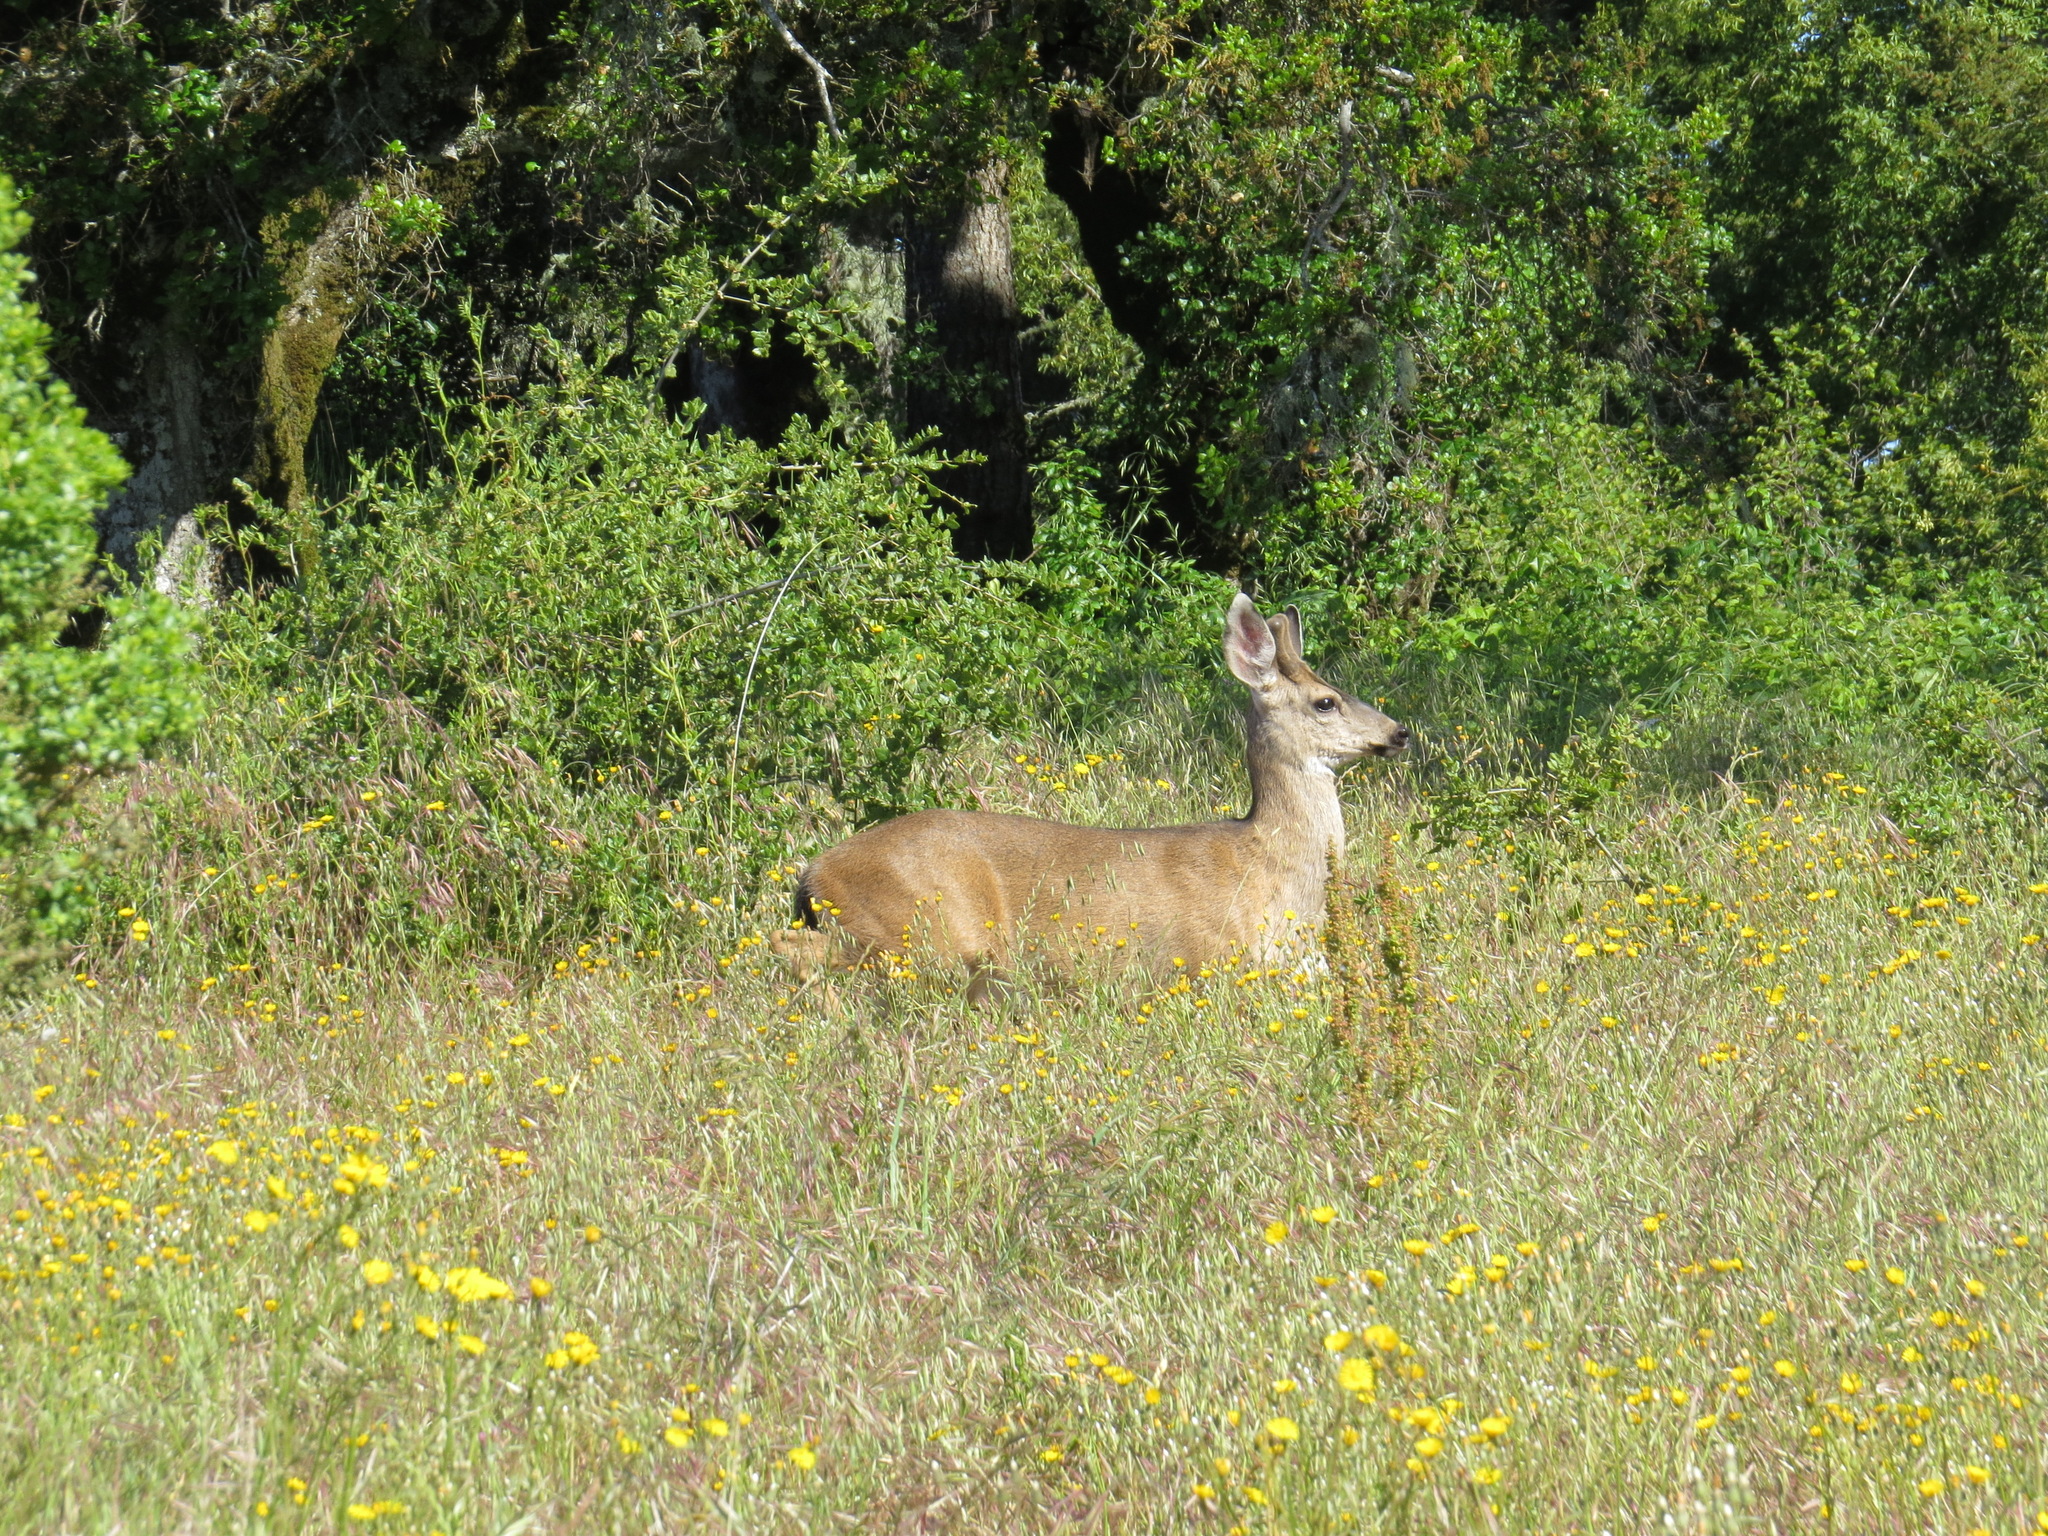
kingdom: Animalia
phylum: Chordata
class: Mammalia
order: Artiodactyla
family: Cervidae
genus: Odocoileus
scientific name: Odocoileus hemionus
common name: Mule deer
